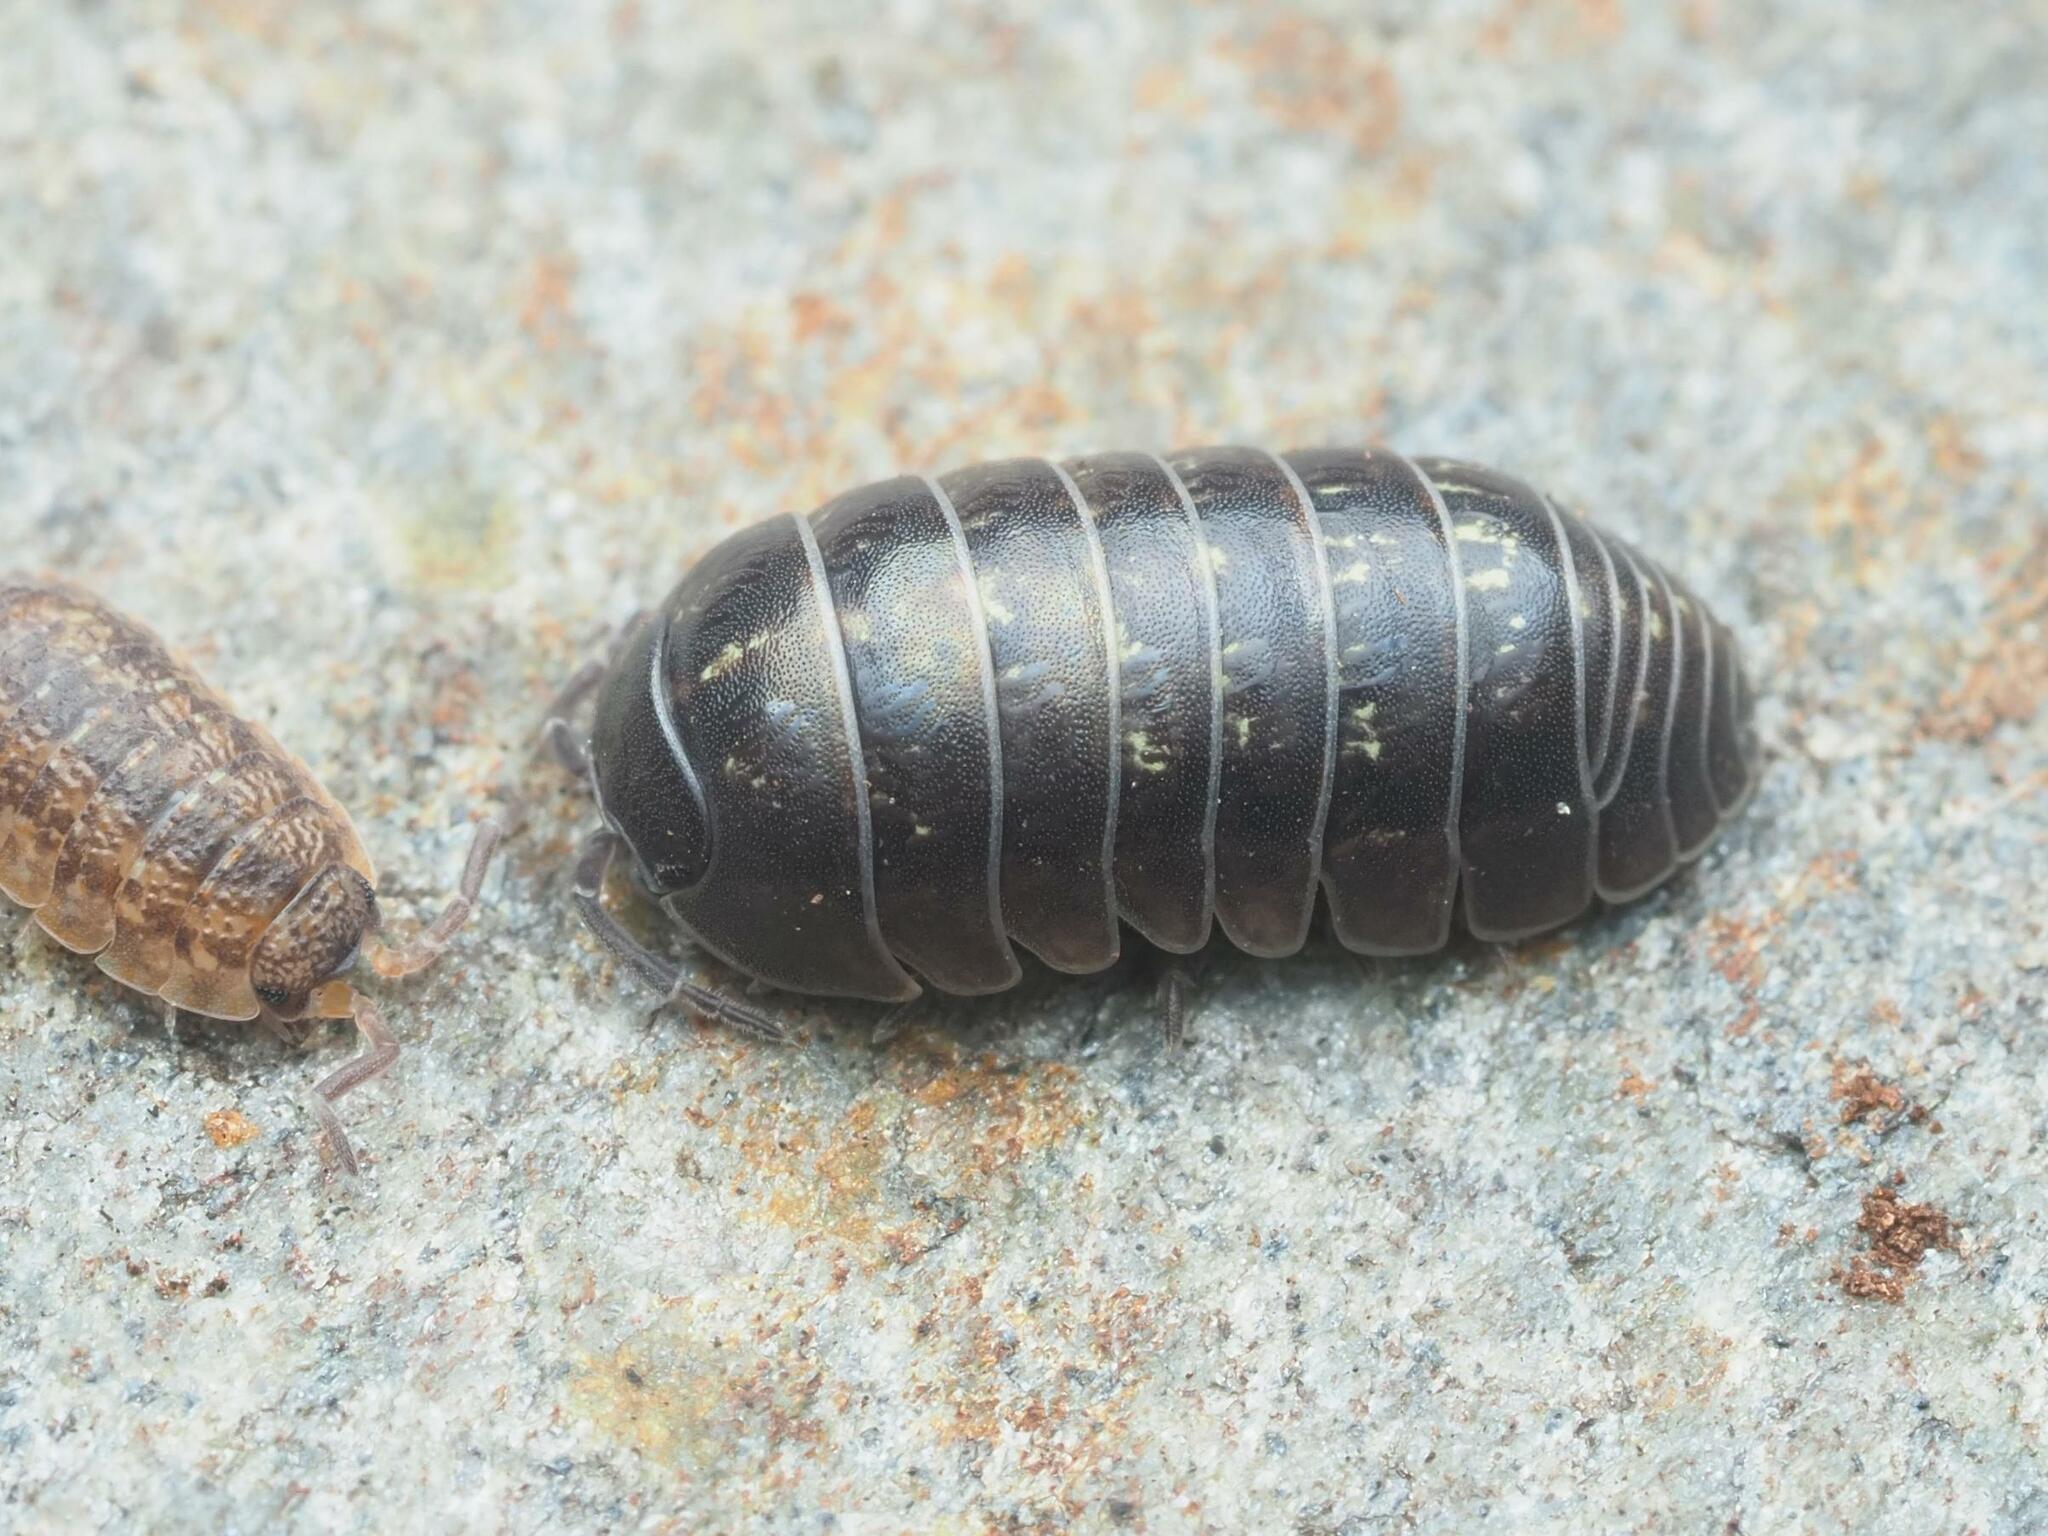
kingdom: Animalia
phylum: Arthropoda
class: Malacostraca
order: Isopoda
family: Armadillidiidae
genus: Armadillidium
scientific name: Armadillidium vulgare
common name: Common pill woodlouse
